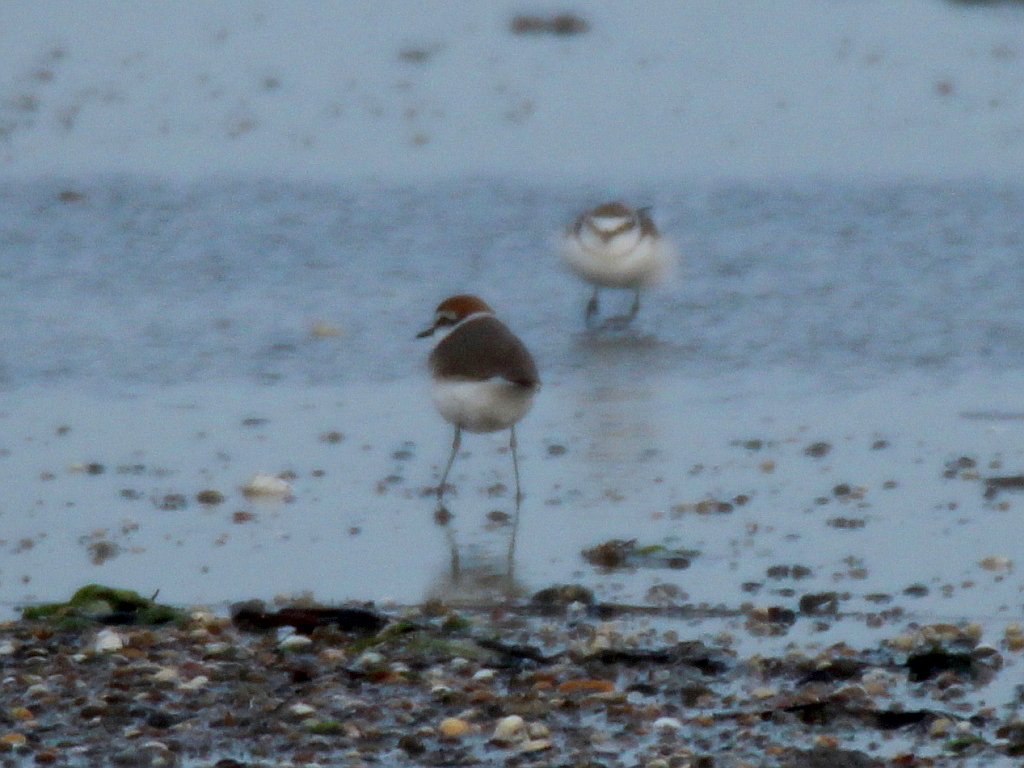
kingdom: Animalia
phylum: Chordata
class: Aves
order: Charadriiformes
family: Charadriidae
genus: Charadrius
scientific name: Charadrius alexandrinus
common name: Kentish plover
